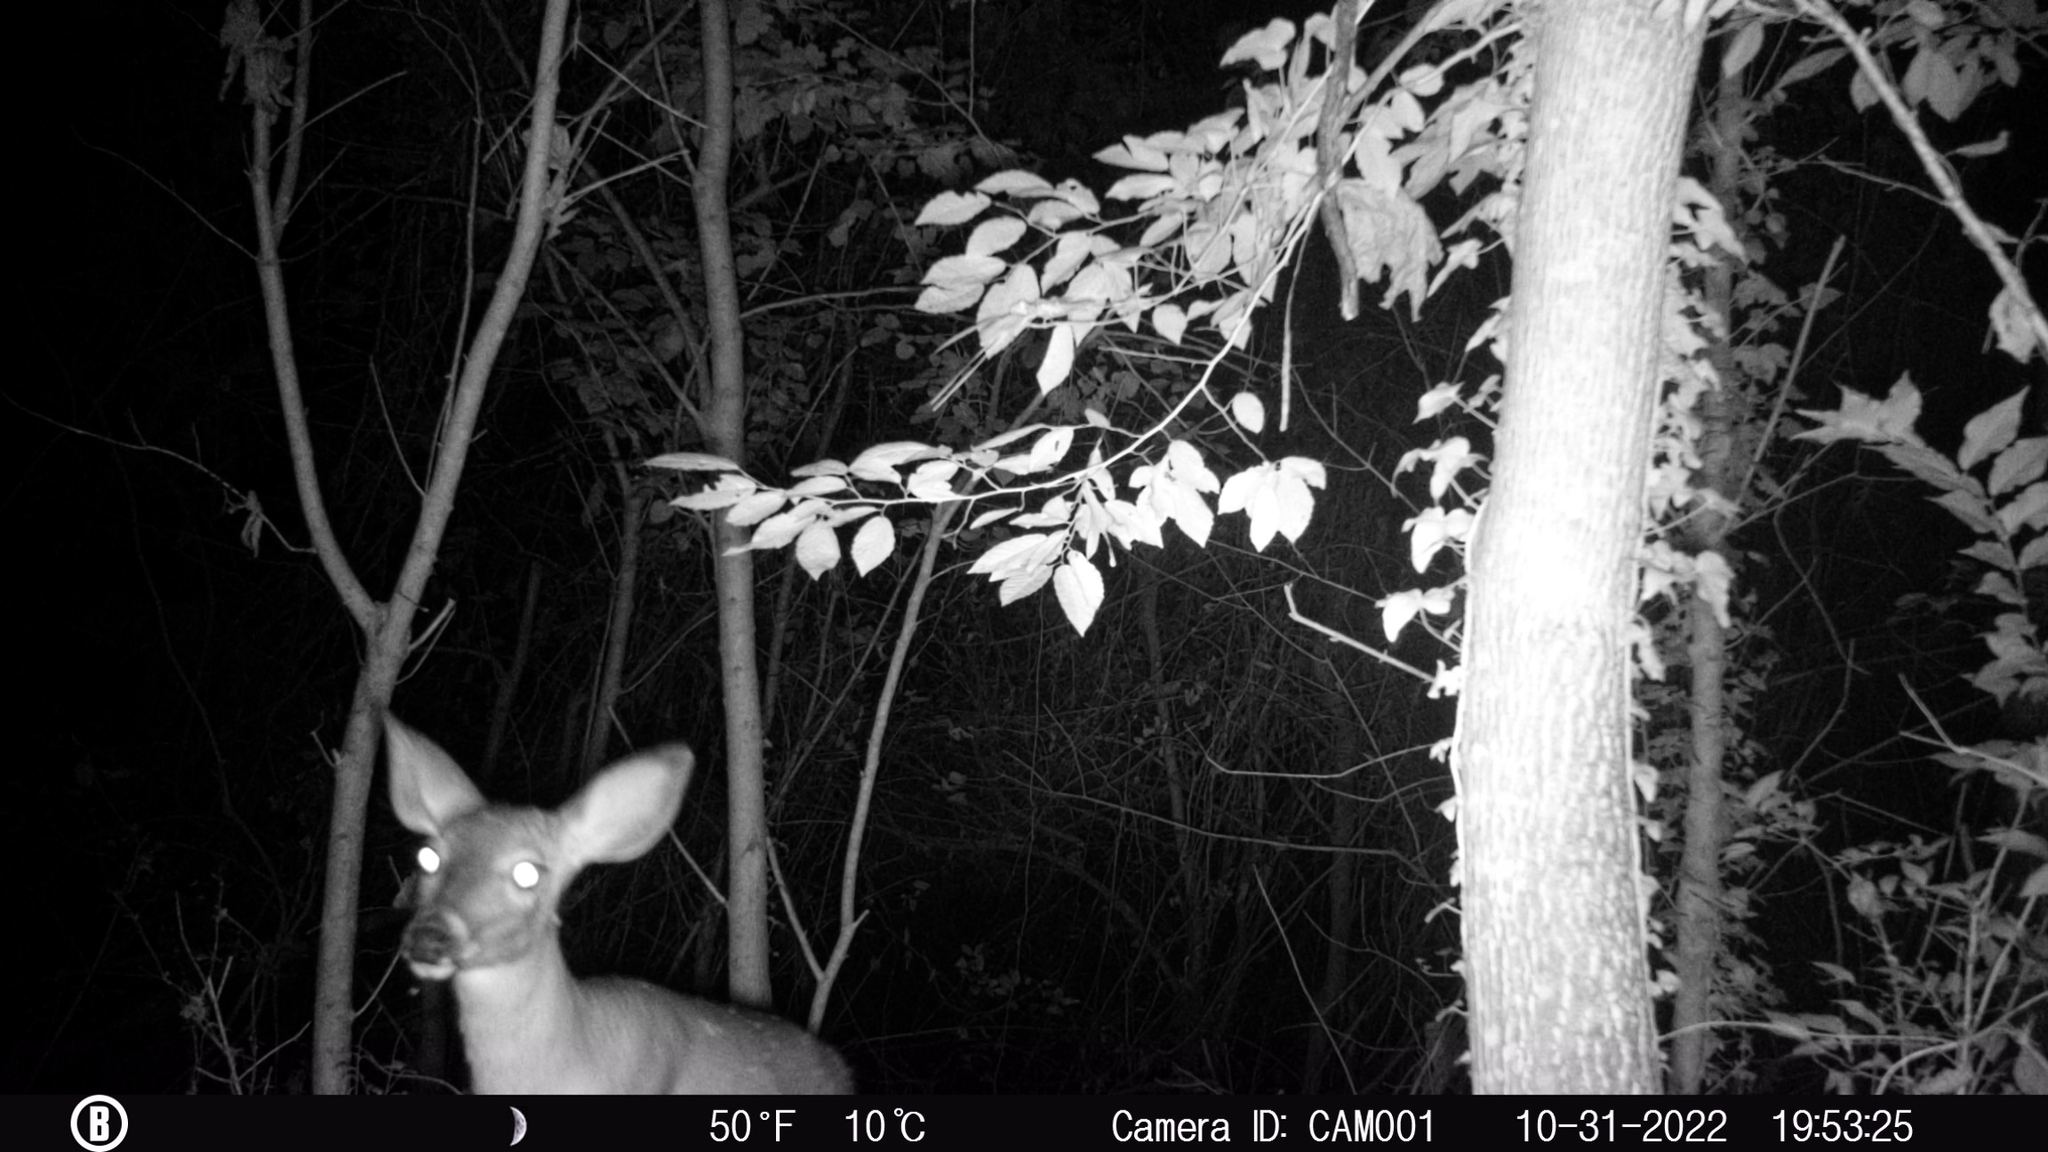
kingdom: Animalia
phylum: Chordata
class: Mammalia
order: Artiodactyla
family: Cervidae
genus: Odocoileus
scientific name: Odocoileus virginianus
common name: White-tailed deer
